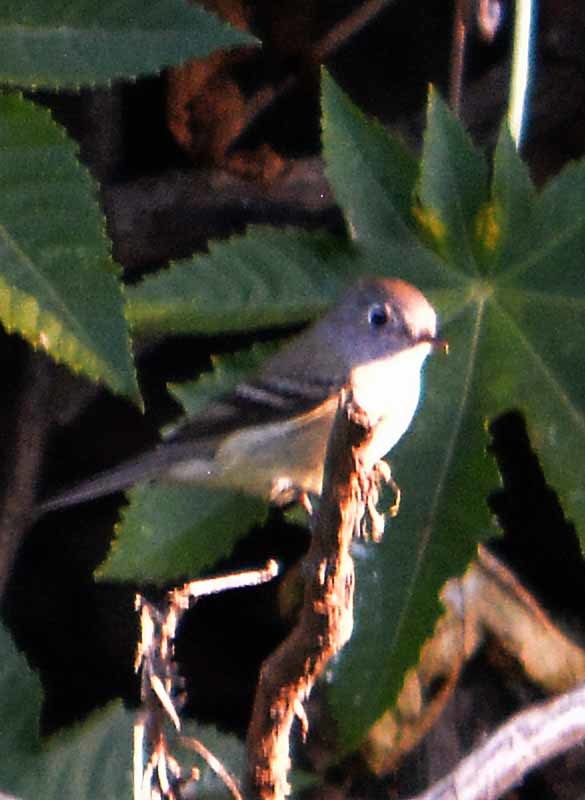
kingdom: Animalia
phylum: Chordata
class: Aves
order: Passeriformes
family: Regulidae
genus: Regulus
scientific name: Regulus calendula
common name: Ruby-crowned kinglet
